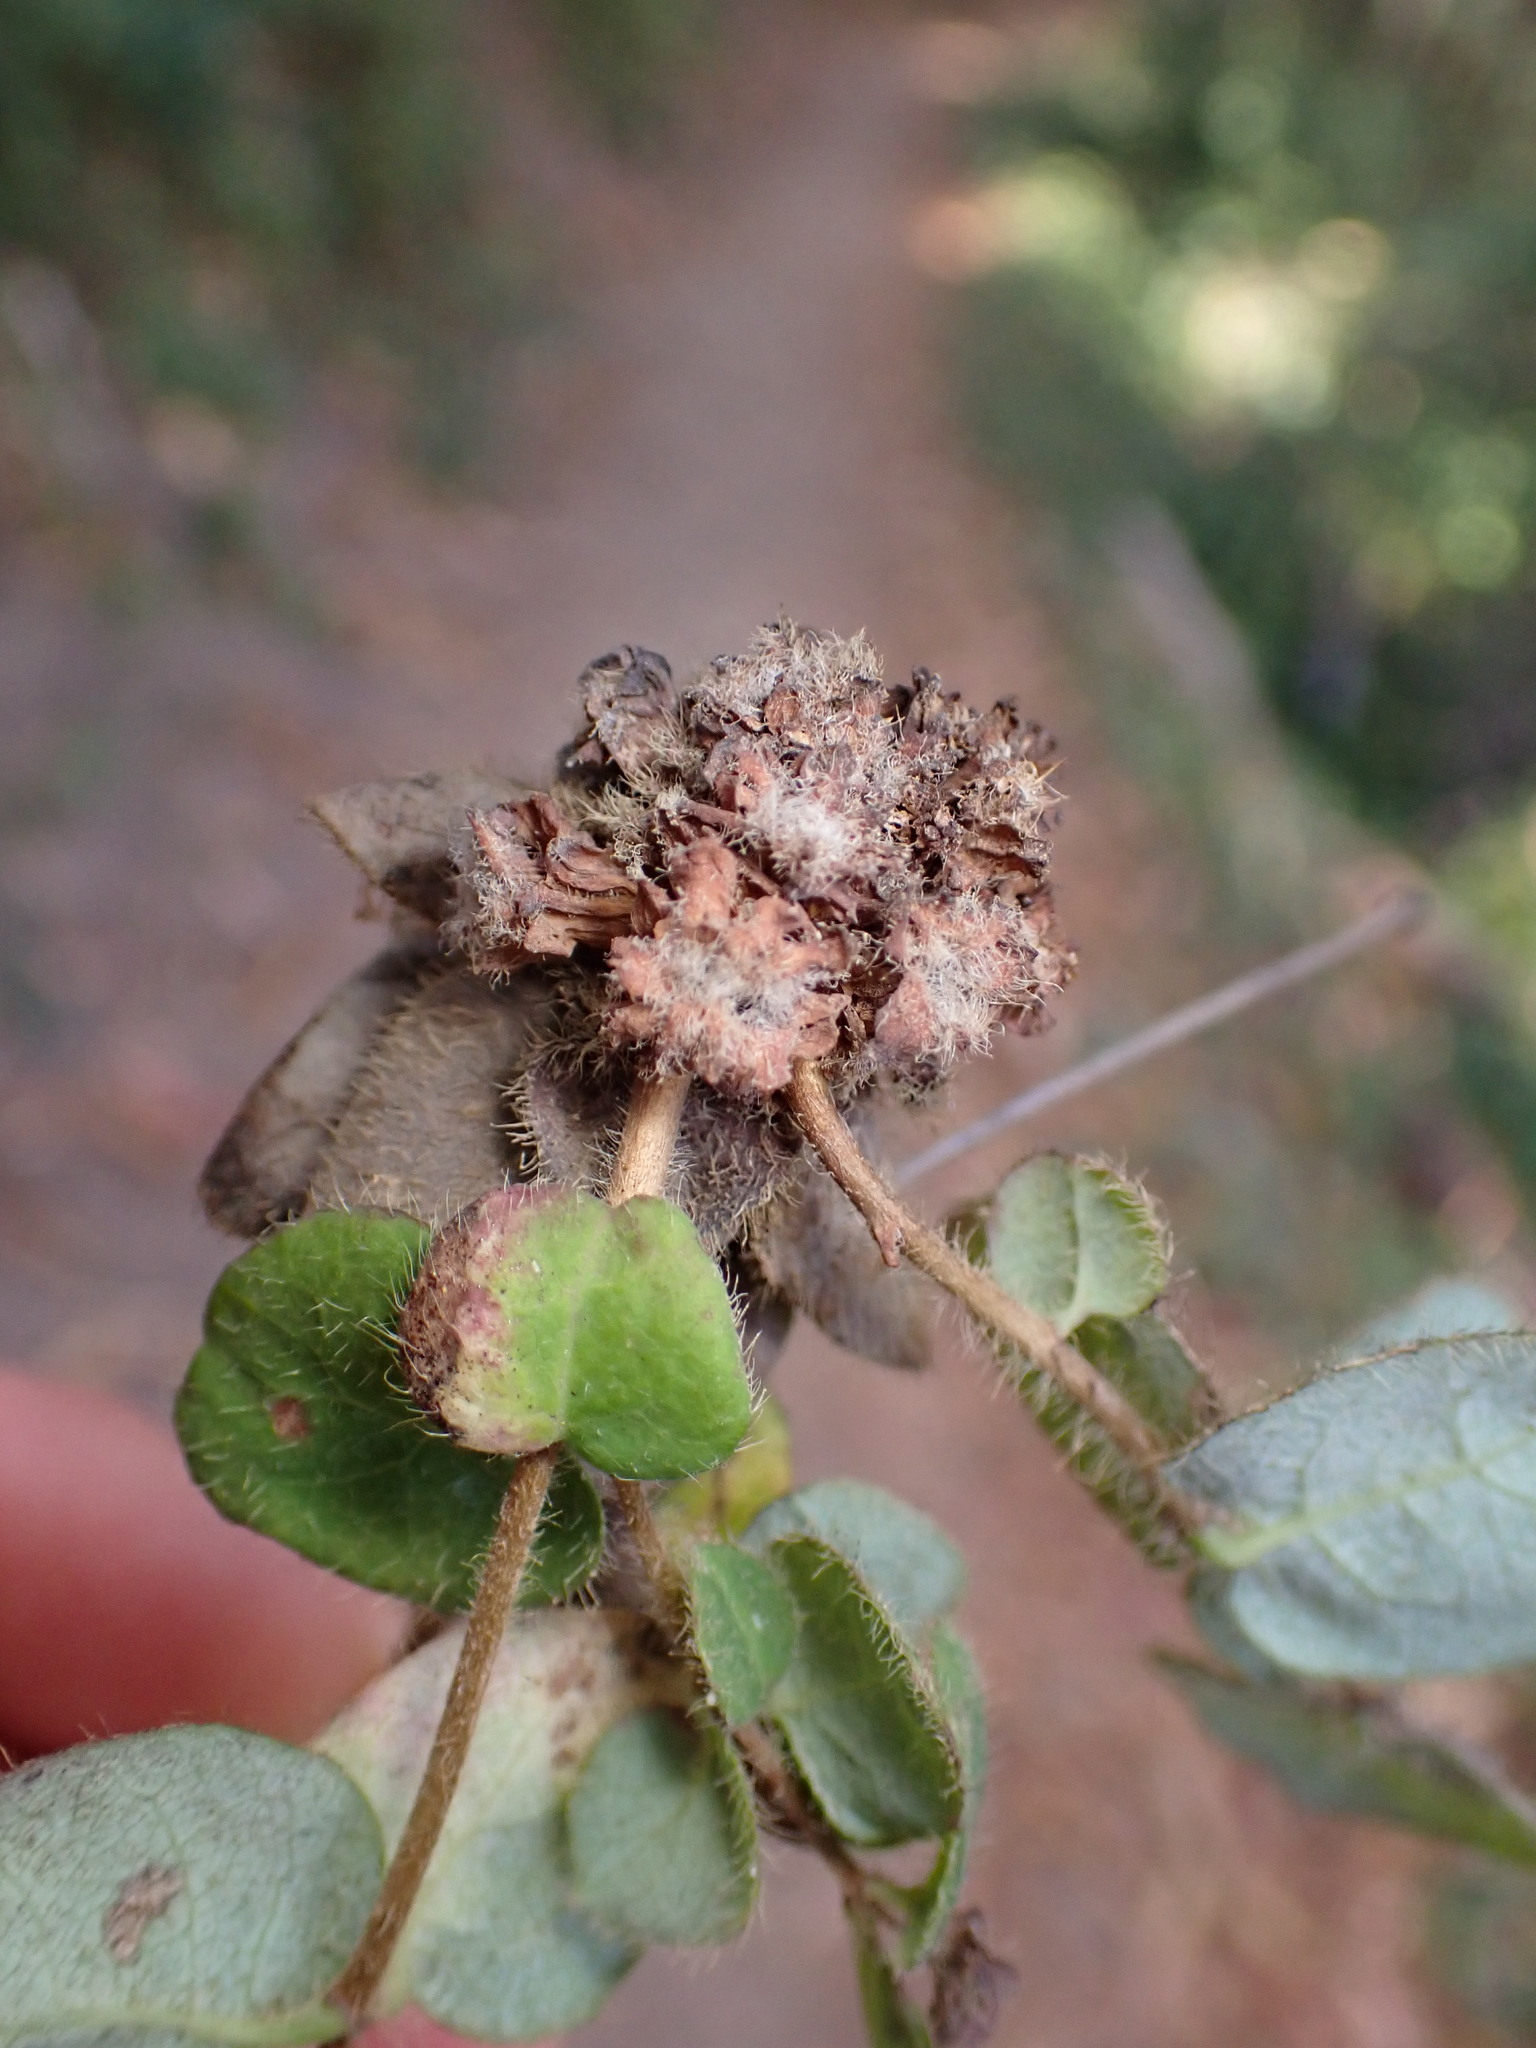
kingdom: Animalia
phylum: Arthropoda
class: Insecta
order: Diptera
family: Cecidomyiidae
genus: Lonicerae
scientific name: Lonicerae russoi
